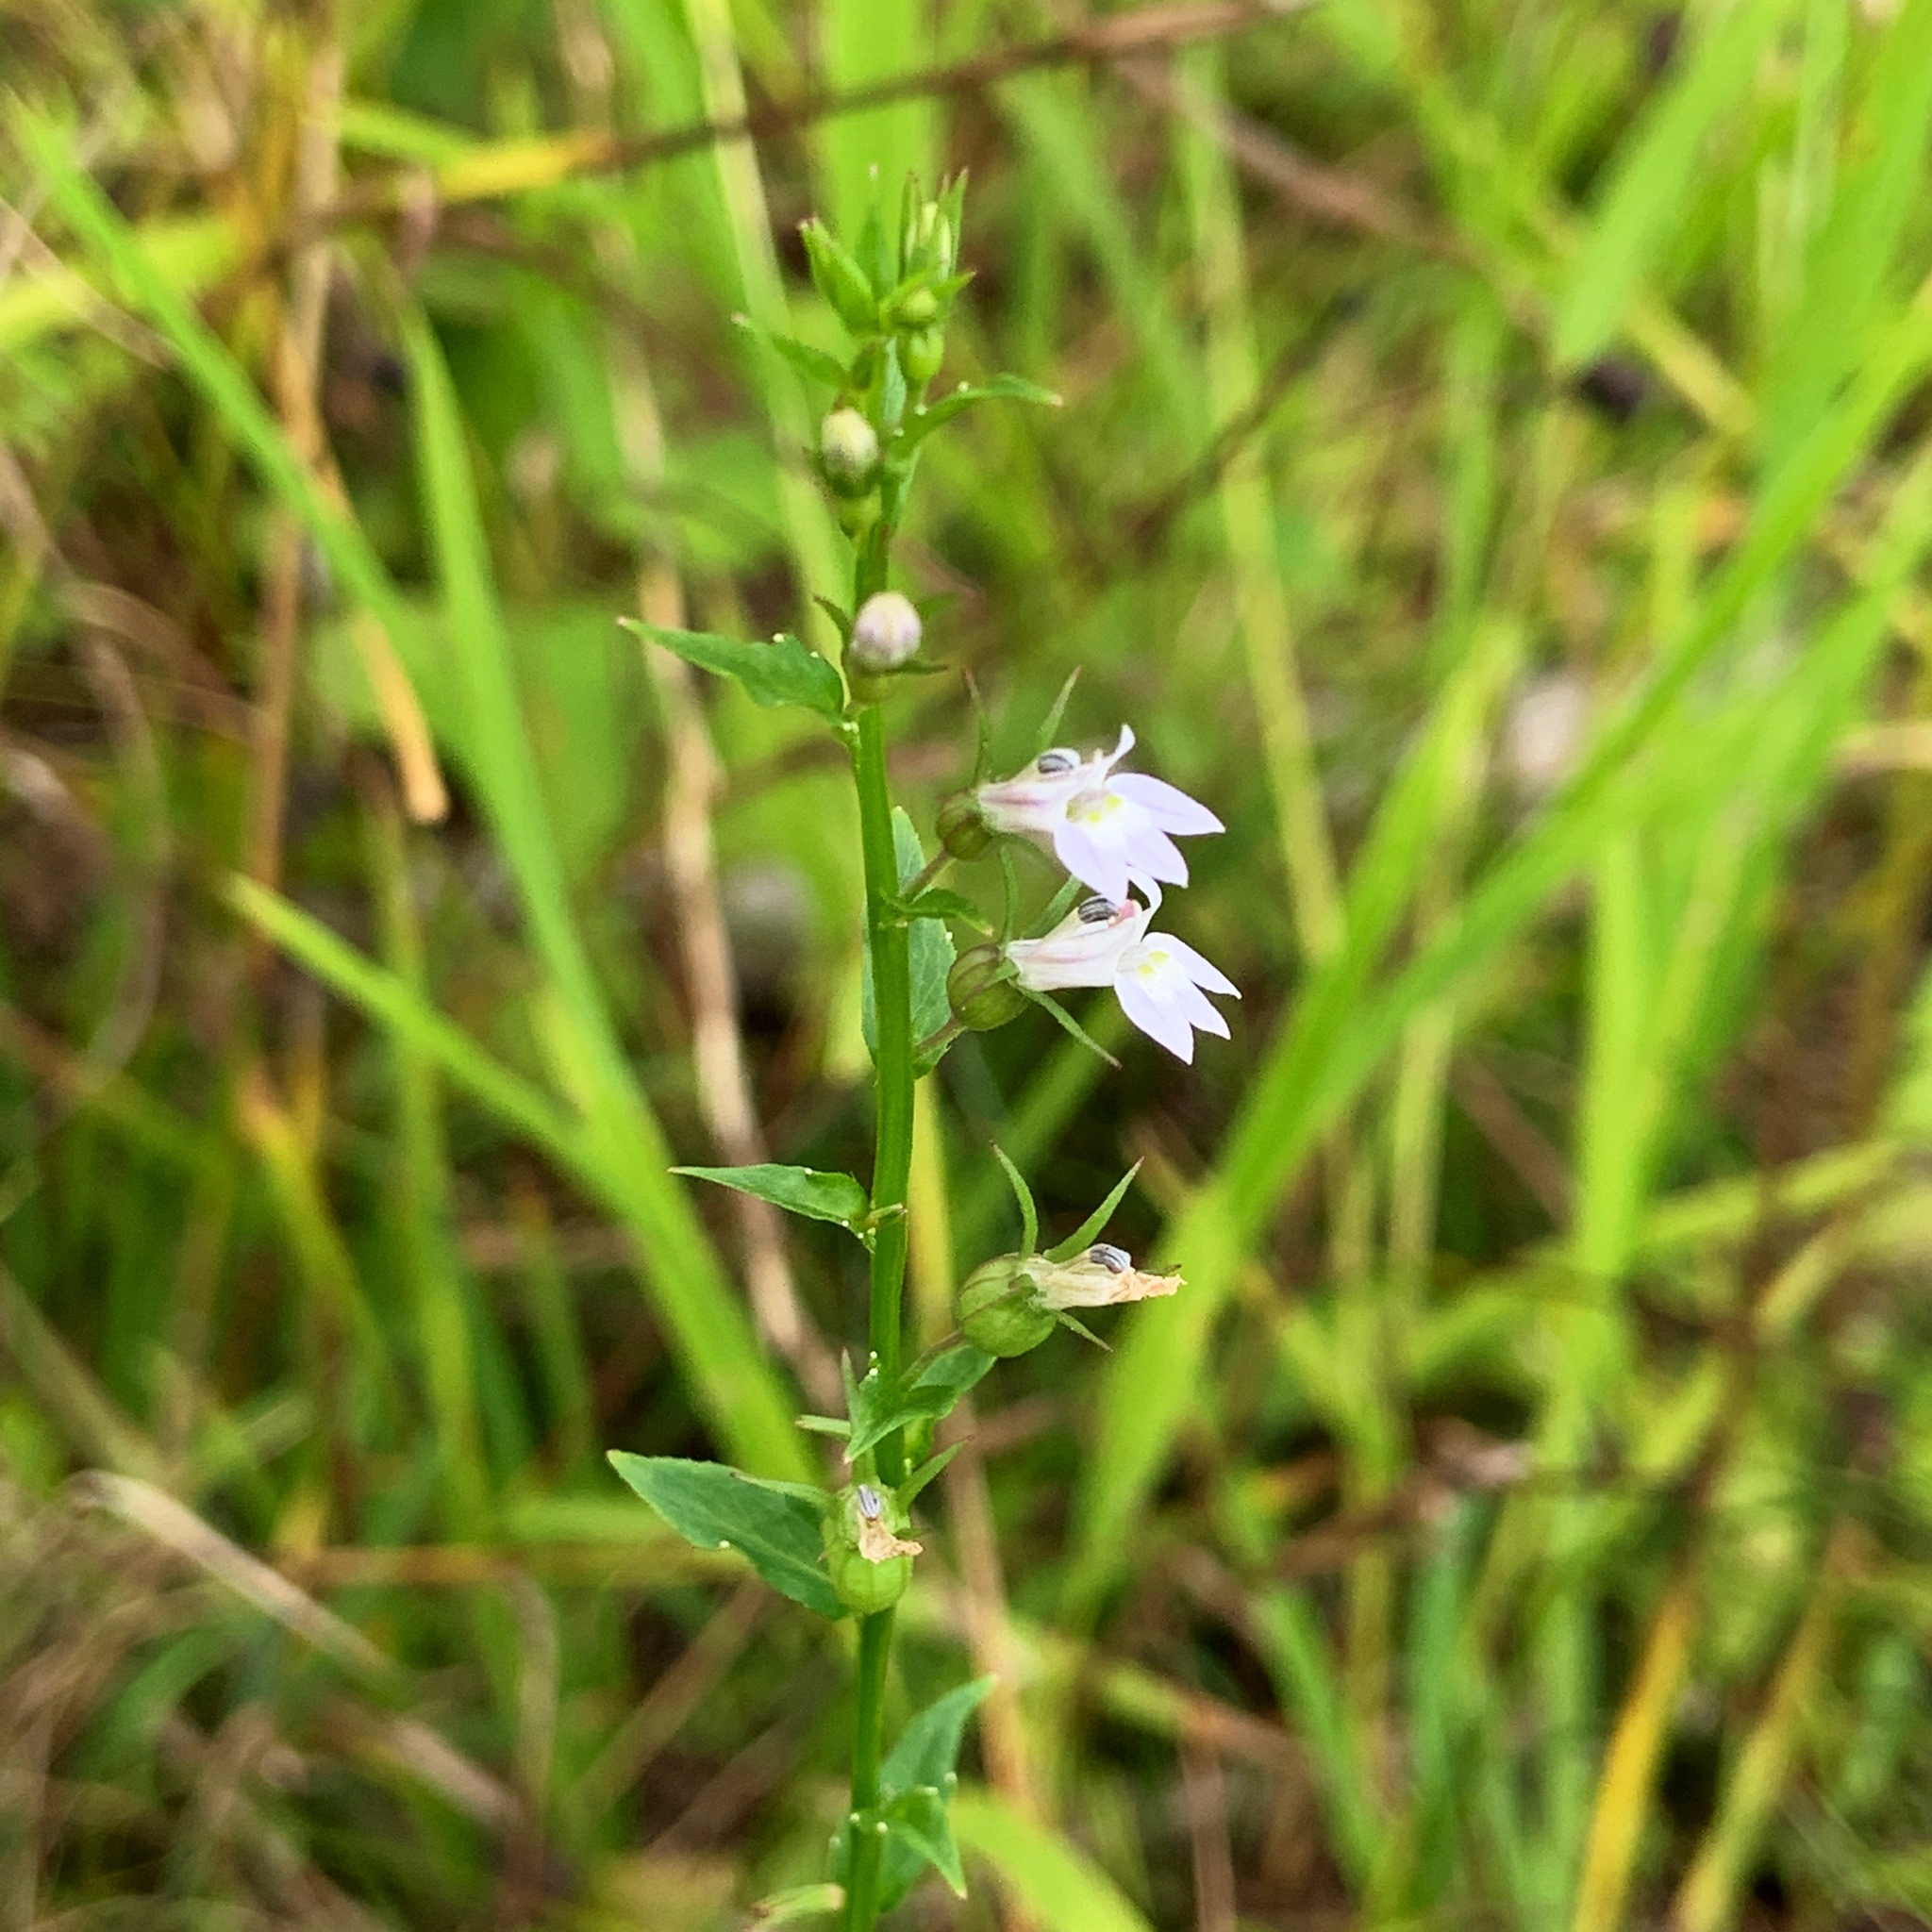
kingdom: Plantae
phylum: Tracheophyta
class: Magnoliopsida
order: Asterales
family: Campanulaceae
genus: Lobelia
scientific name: Lobelia inflata
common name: Indian tobacco
